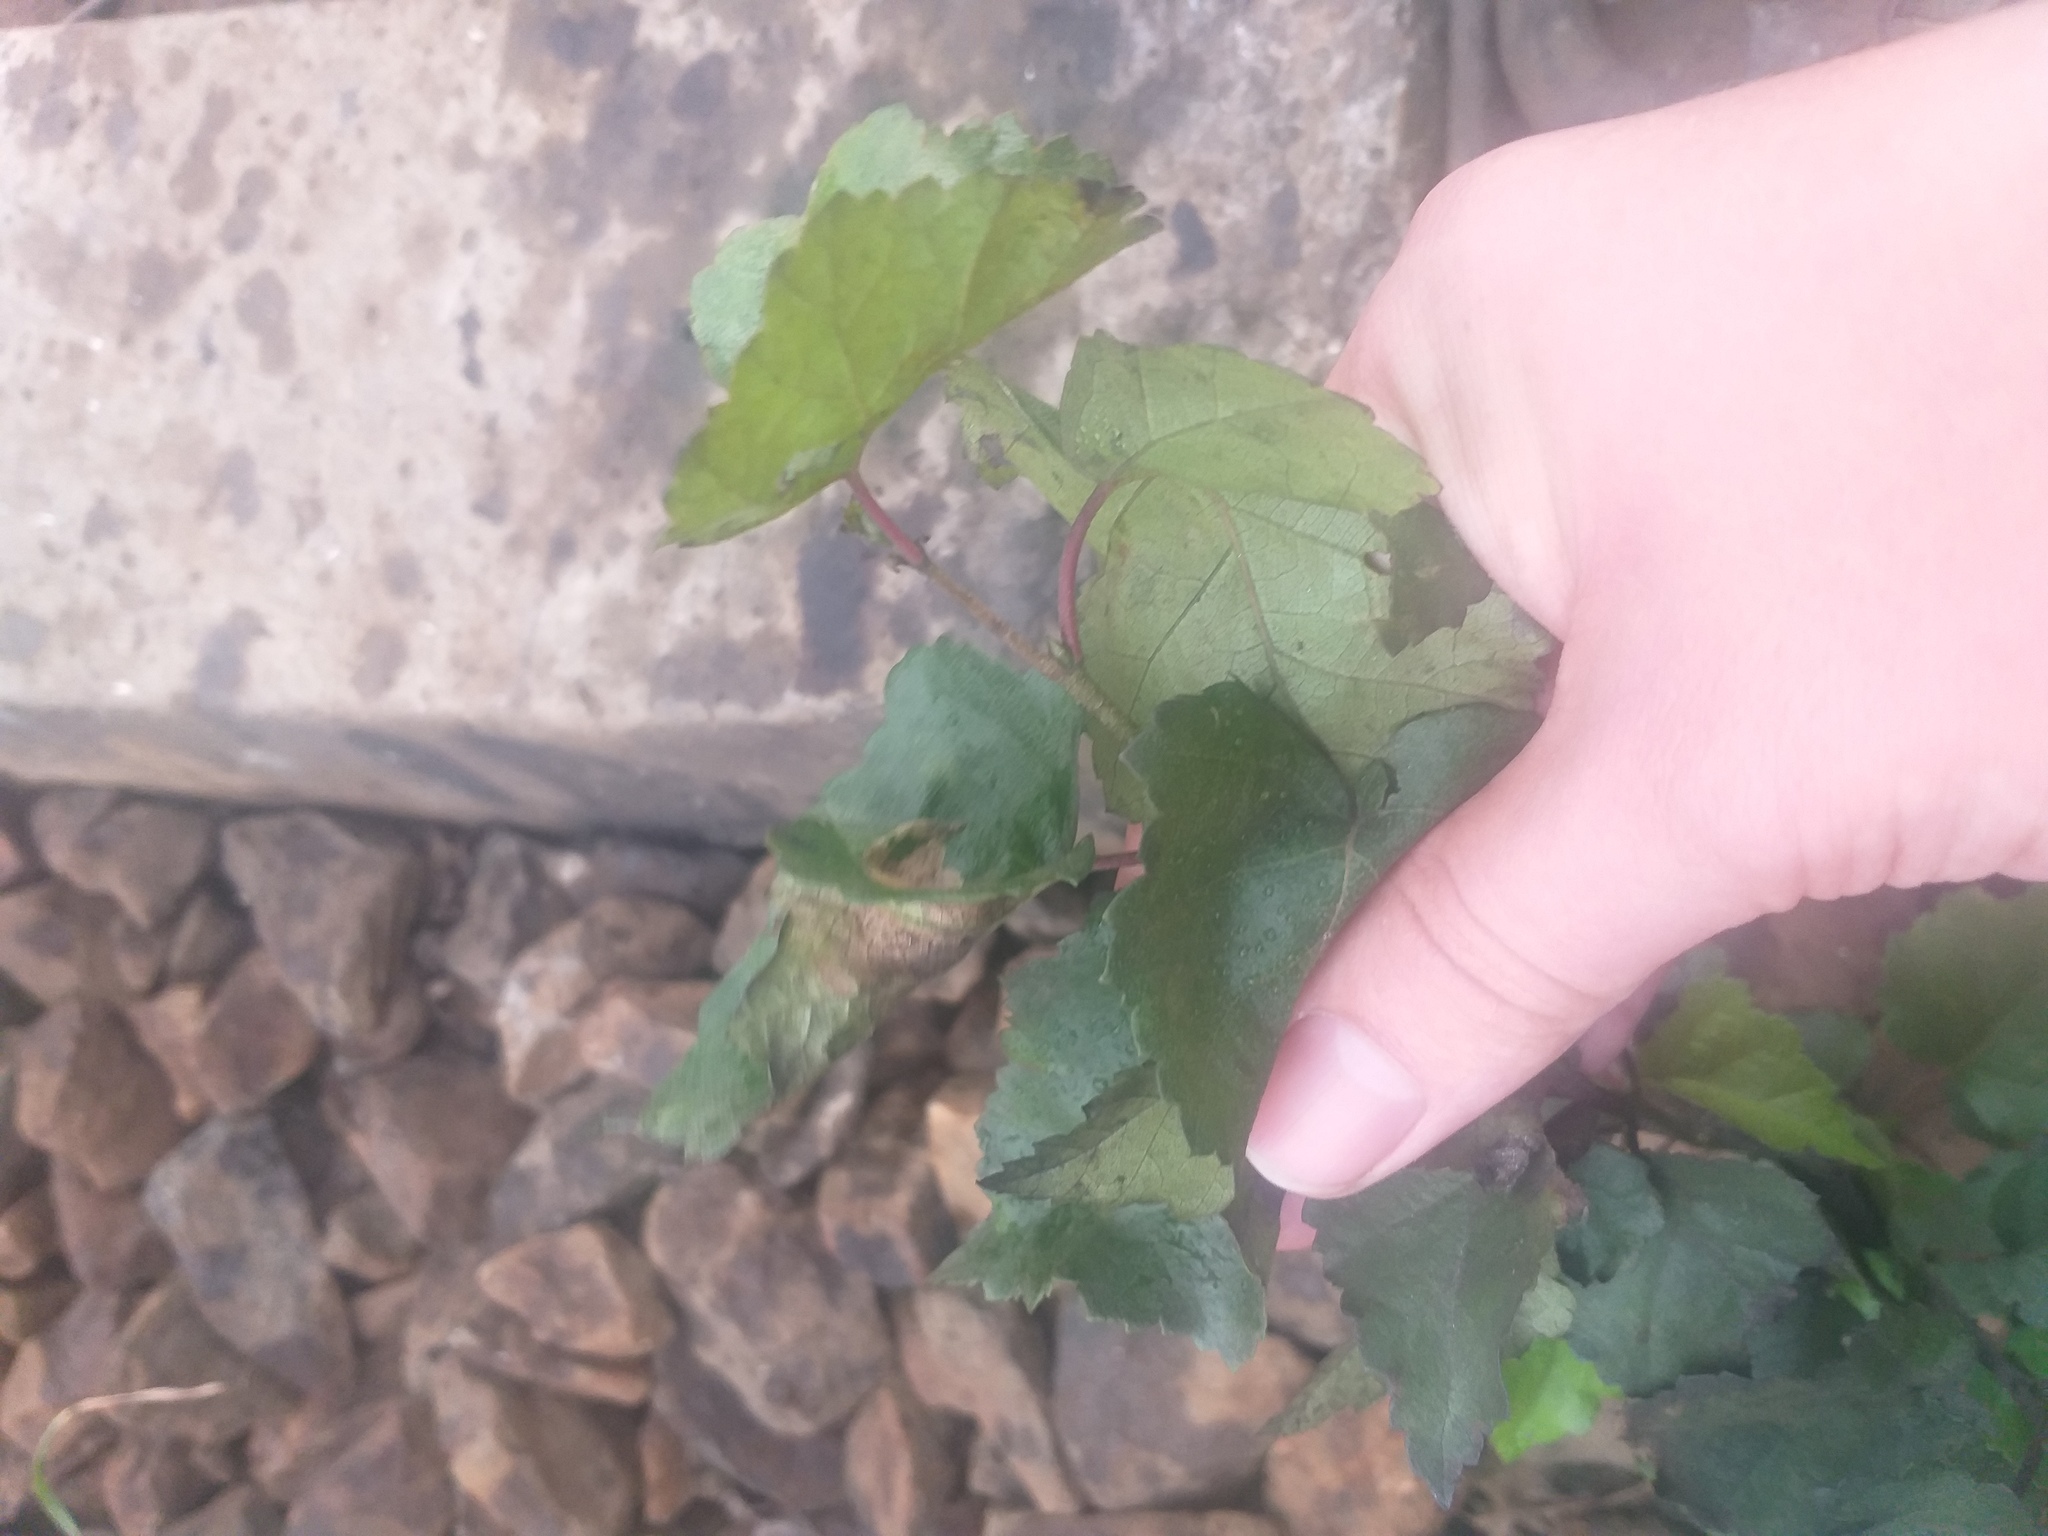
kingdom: Plantae
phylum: Tracheophyta
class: Magnoliopsida
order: Fagales
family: Betulaceae
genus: Betula
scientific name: Betula pendula
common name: Silver birch
